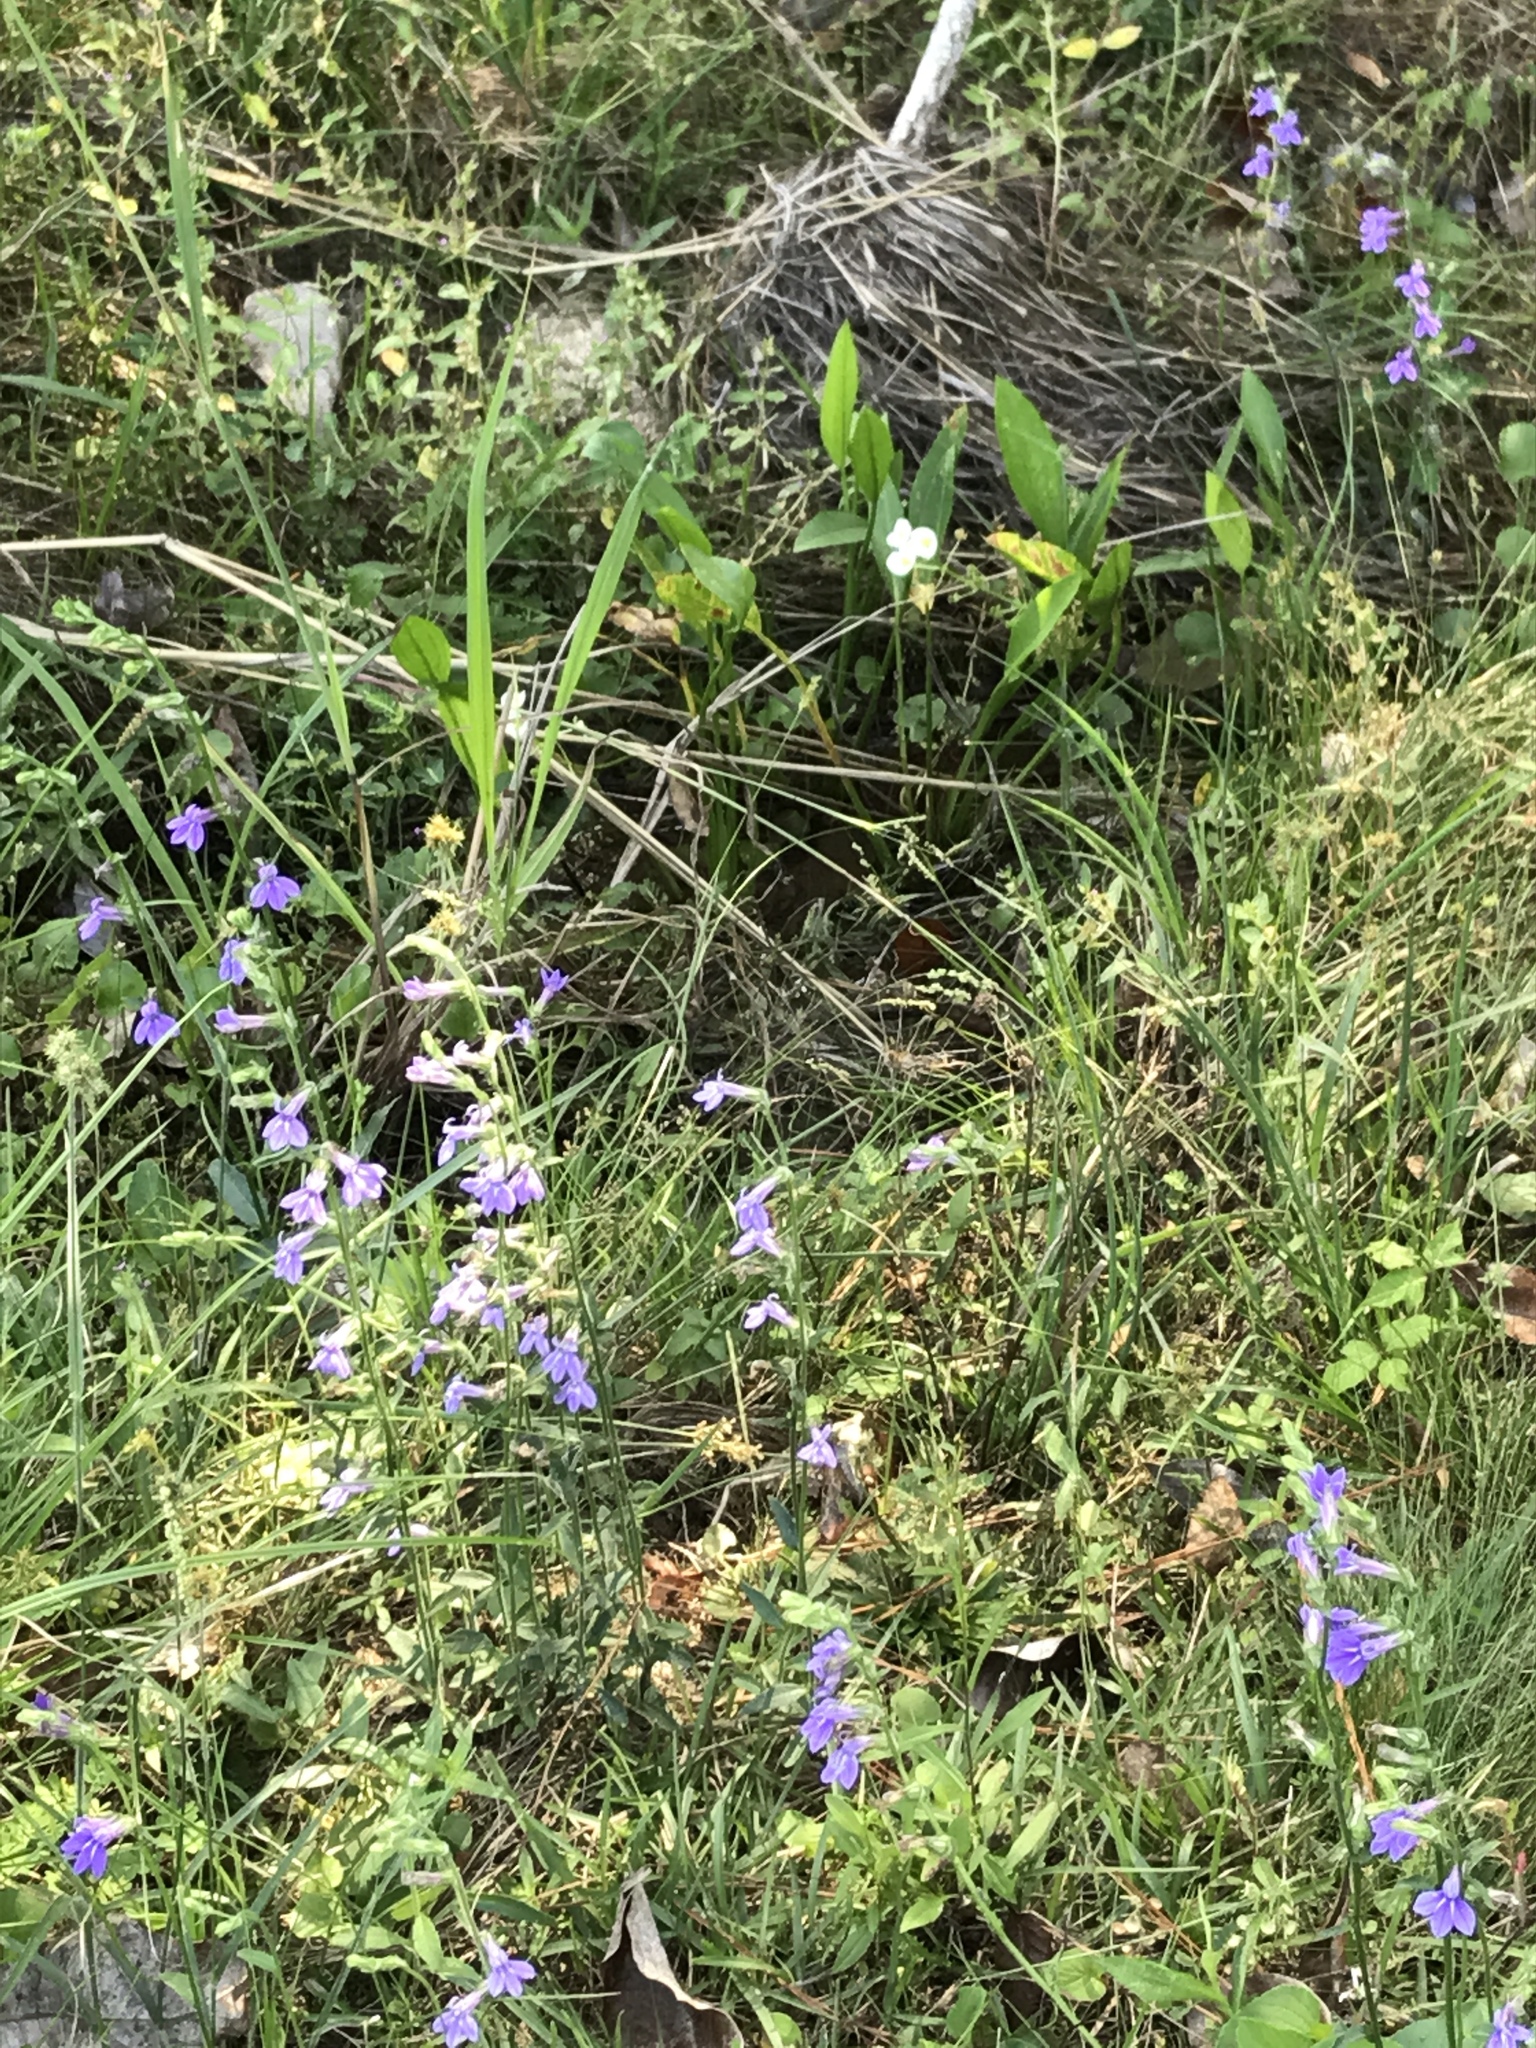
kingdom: Plantae
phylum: Tracheophyta
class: Magnoliopsida
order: Asterales
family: Campanulaceae
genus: Lobelia
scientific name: Lobelia reverchonii
